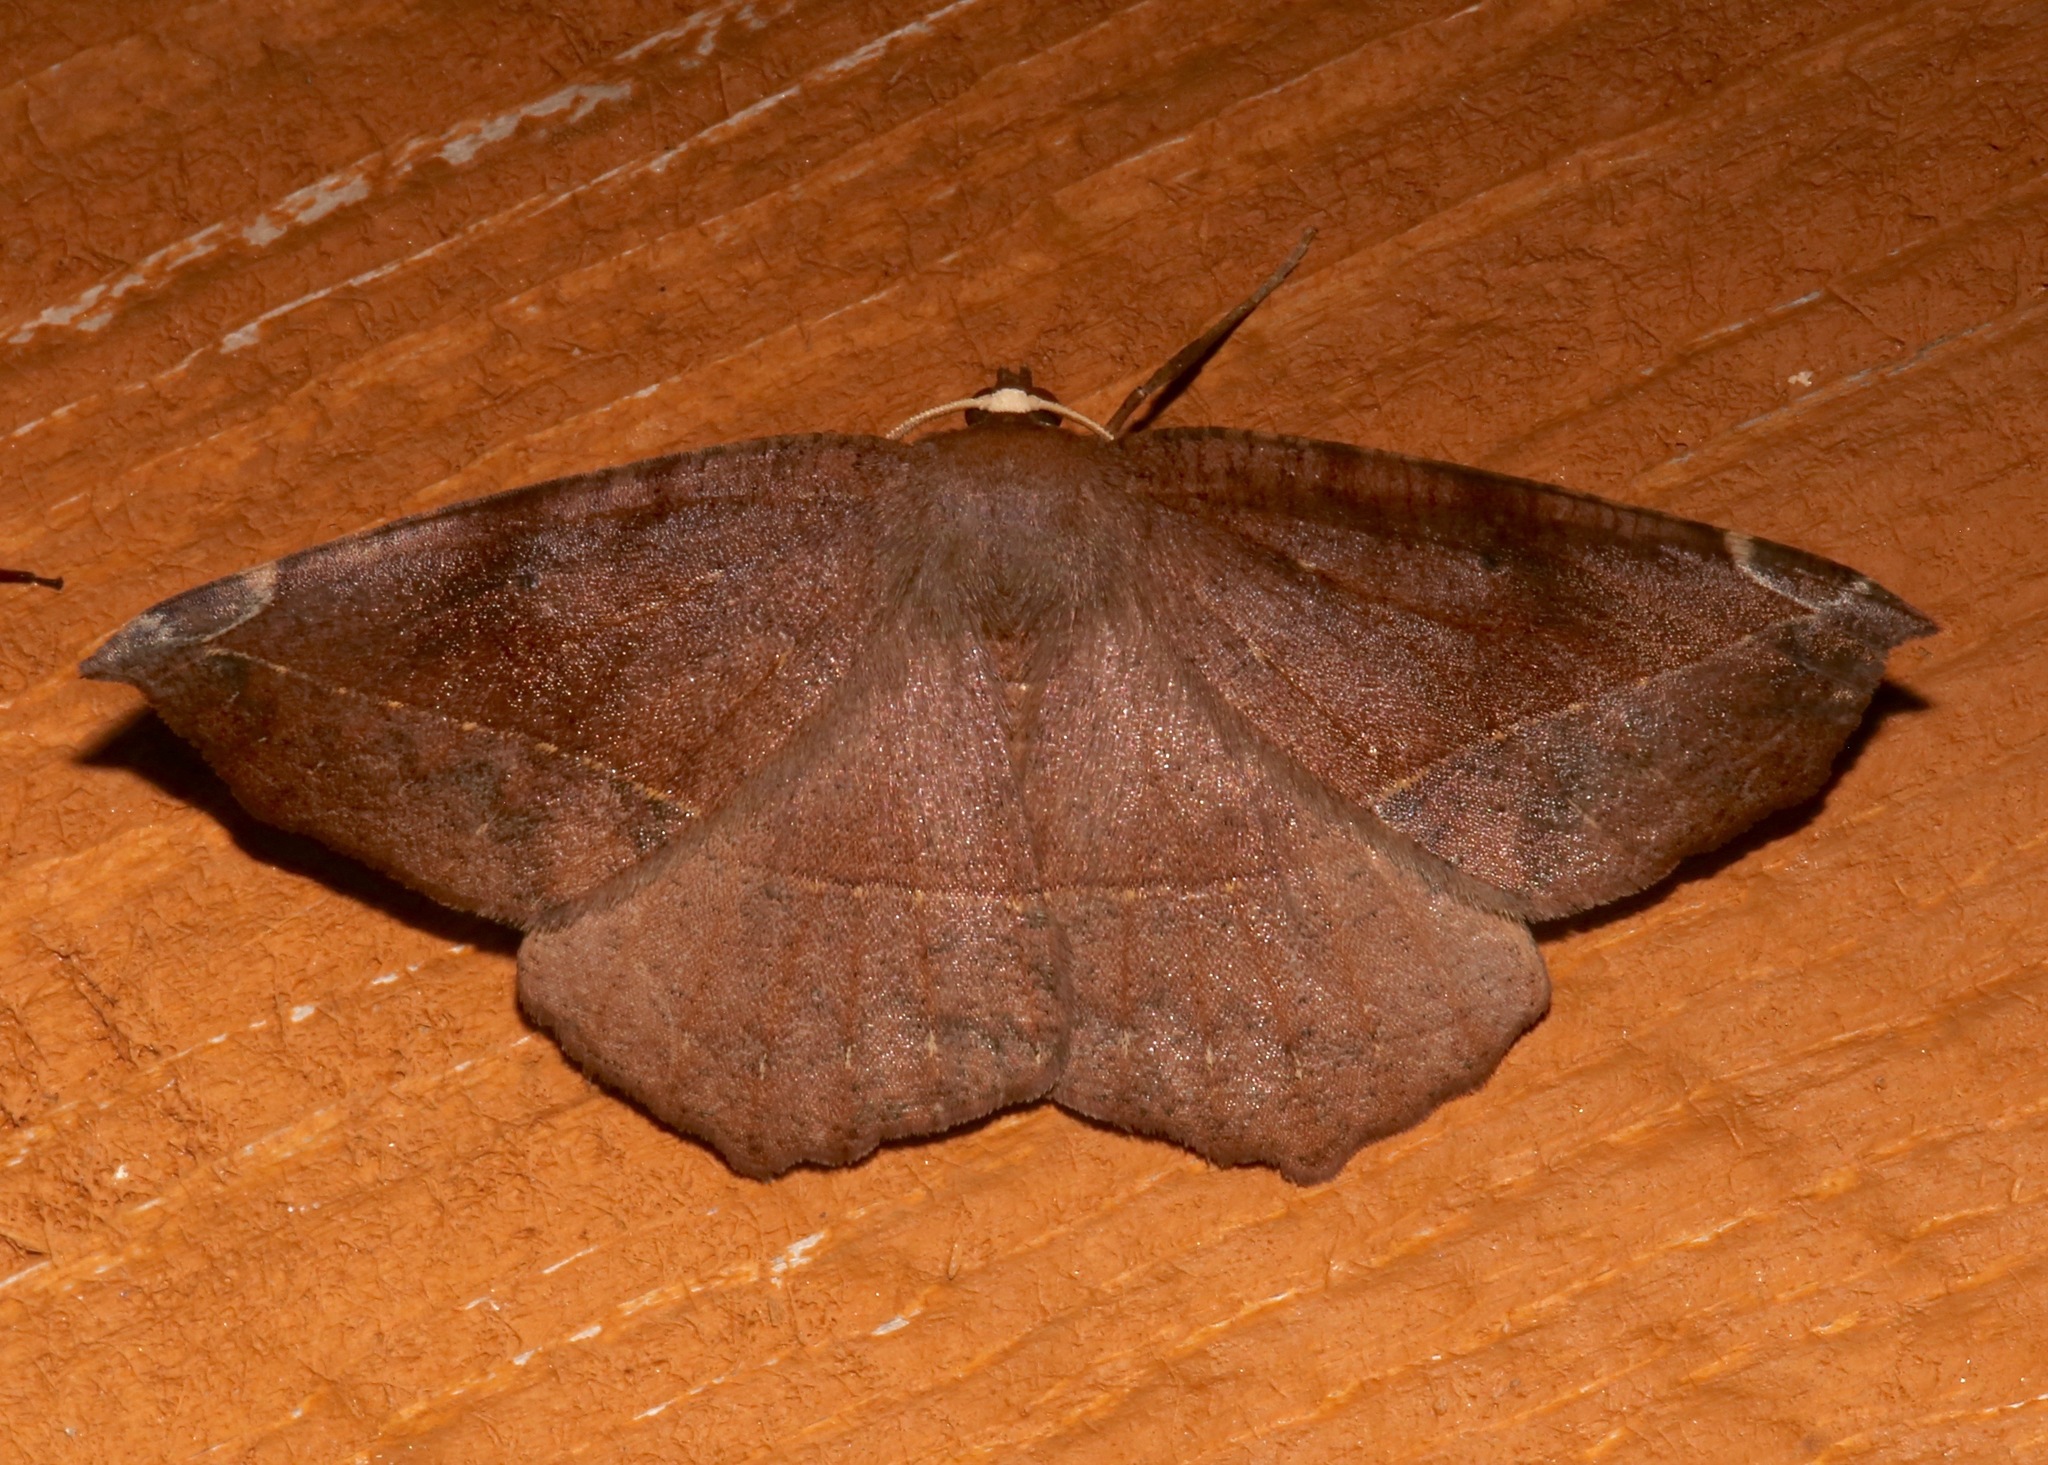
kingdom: Animalia
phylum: Arthropoda
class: Insecta
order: Lepidoptera
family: Geometridae
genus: Eutrapela
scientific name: Eutrapela clemataria
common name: Curved-toothed geometer
